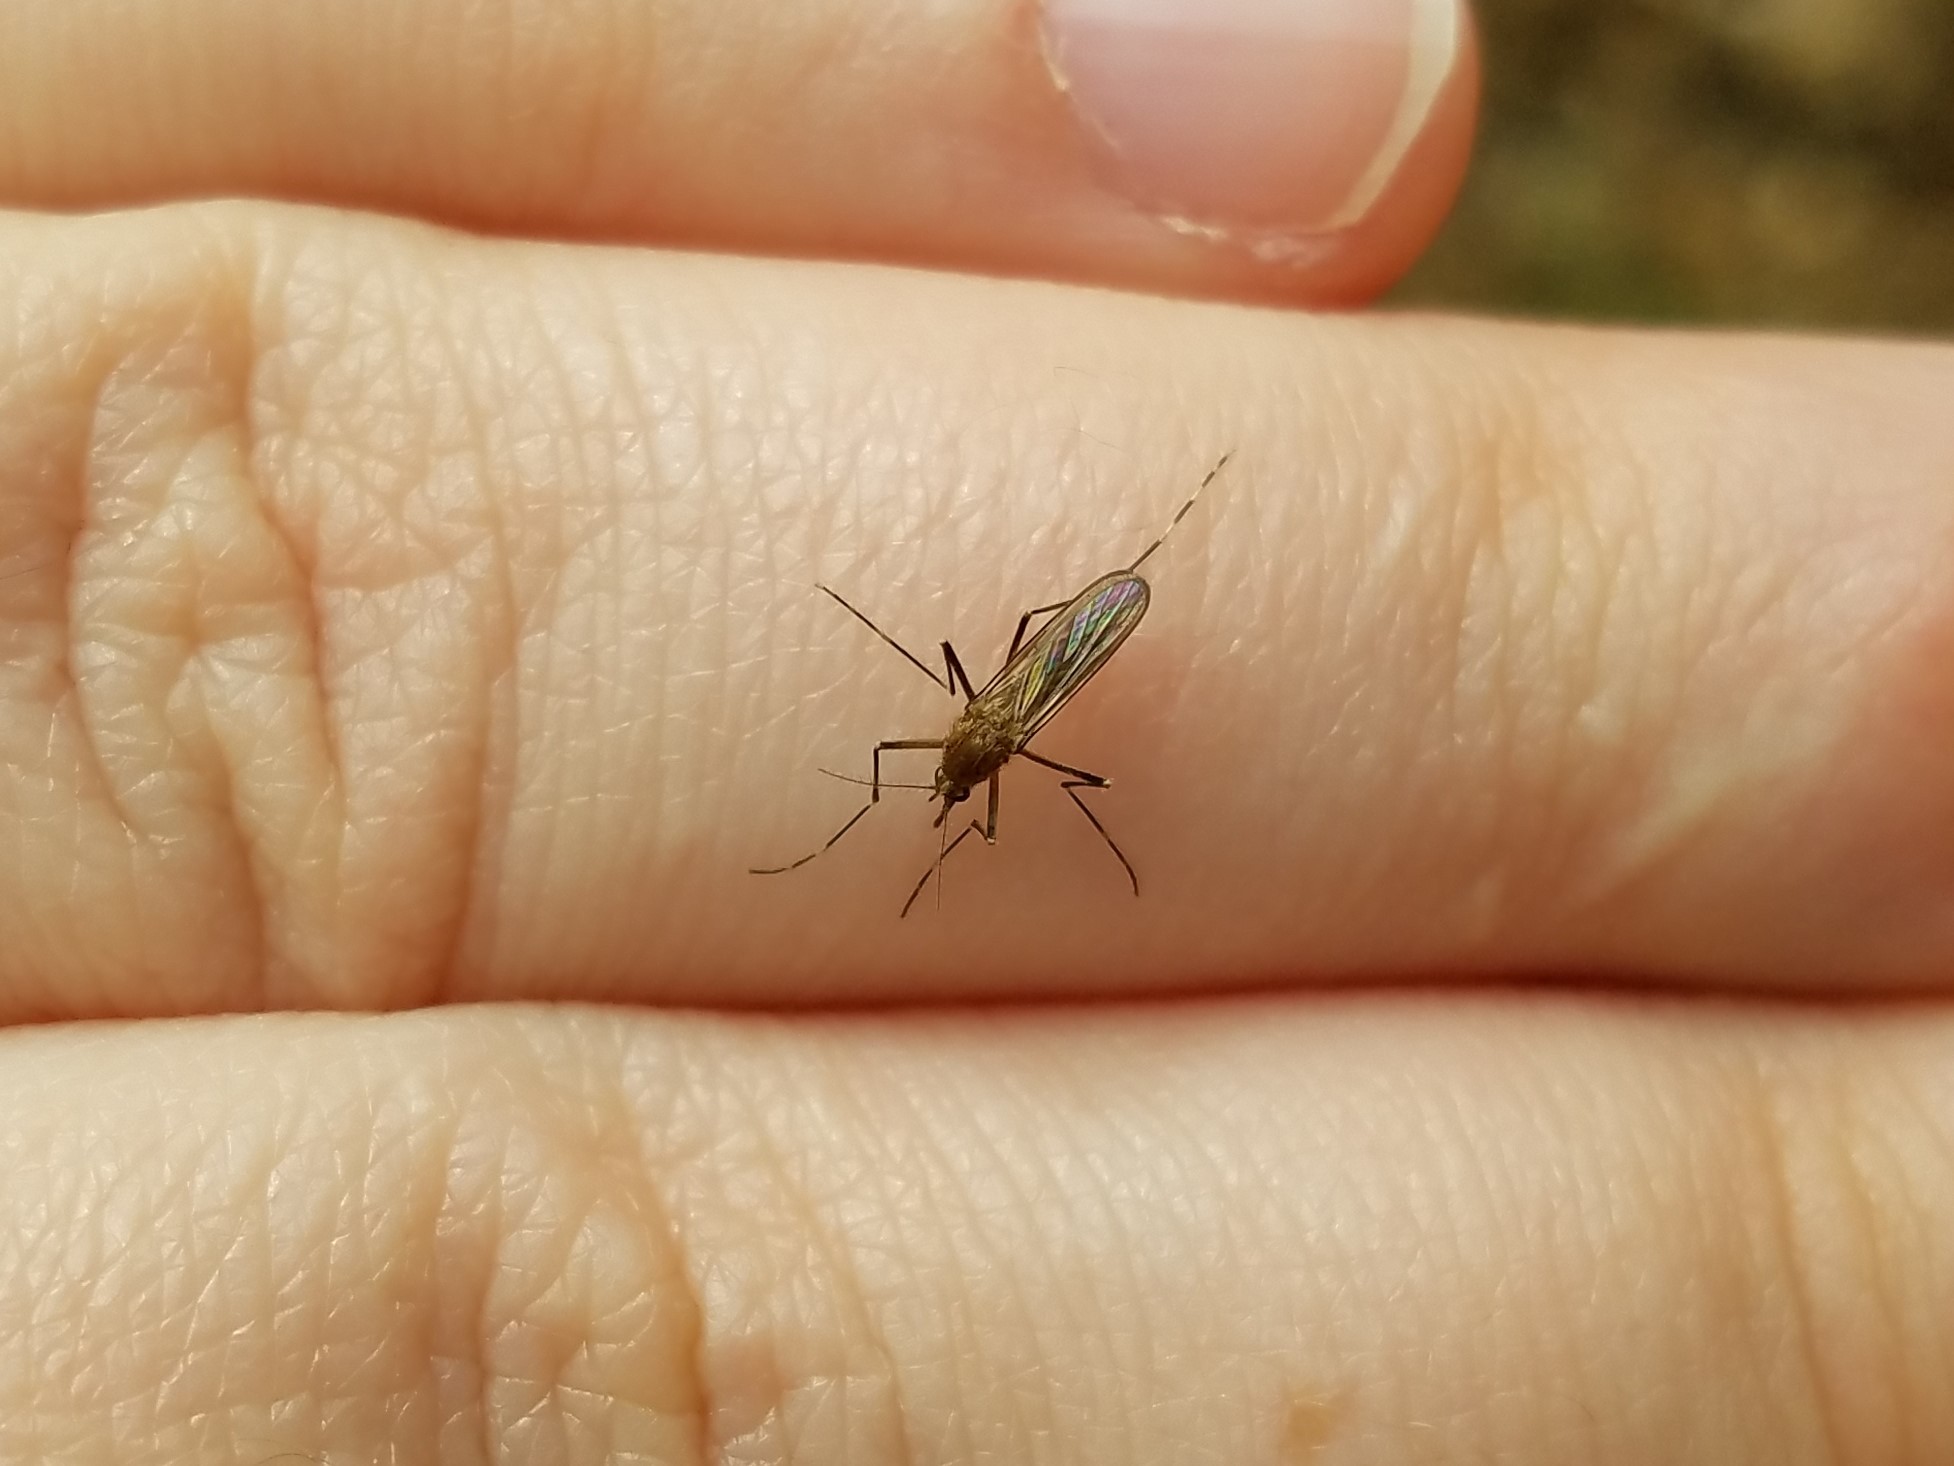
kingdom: Animalia
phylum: Arthropoda
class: Insecta
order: Diptera
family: Culicidae
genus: Aedes
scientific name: Aedes canadensis
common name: Woodland pool mosquito
